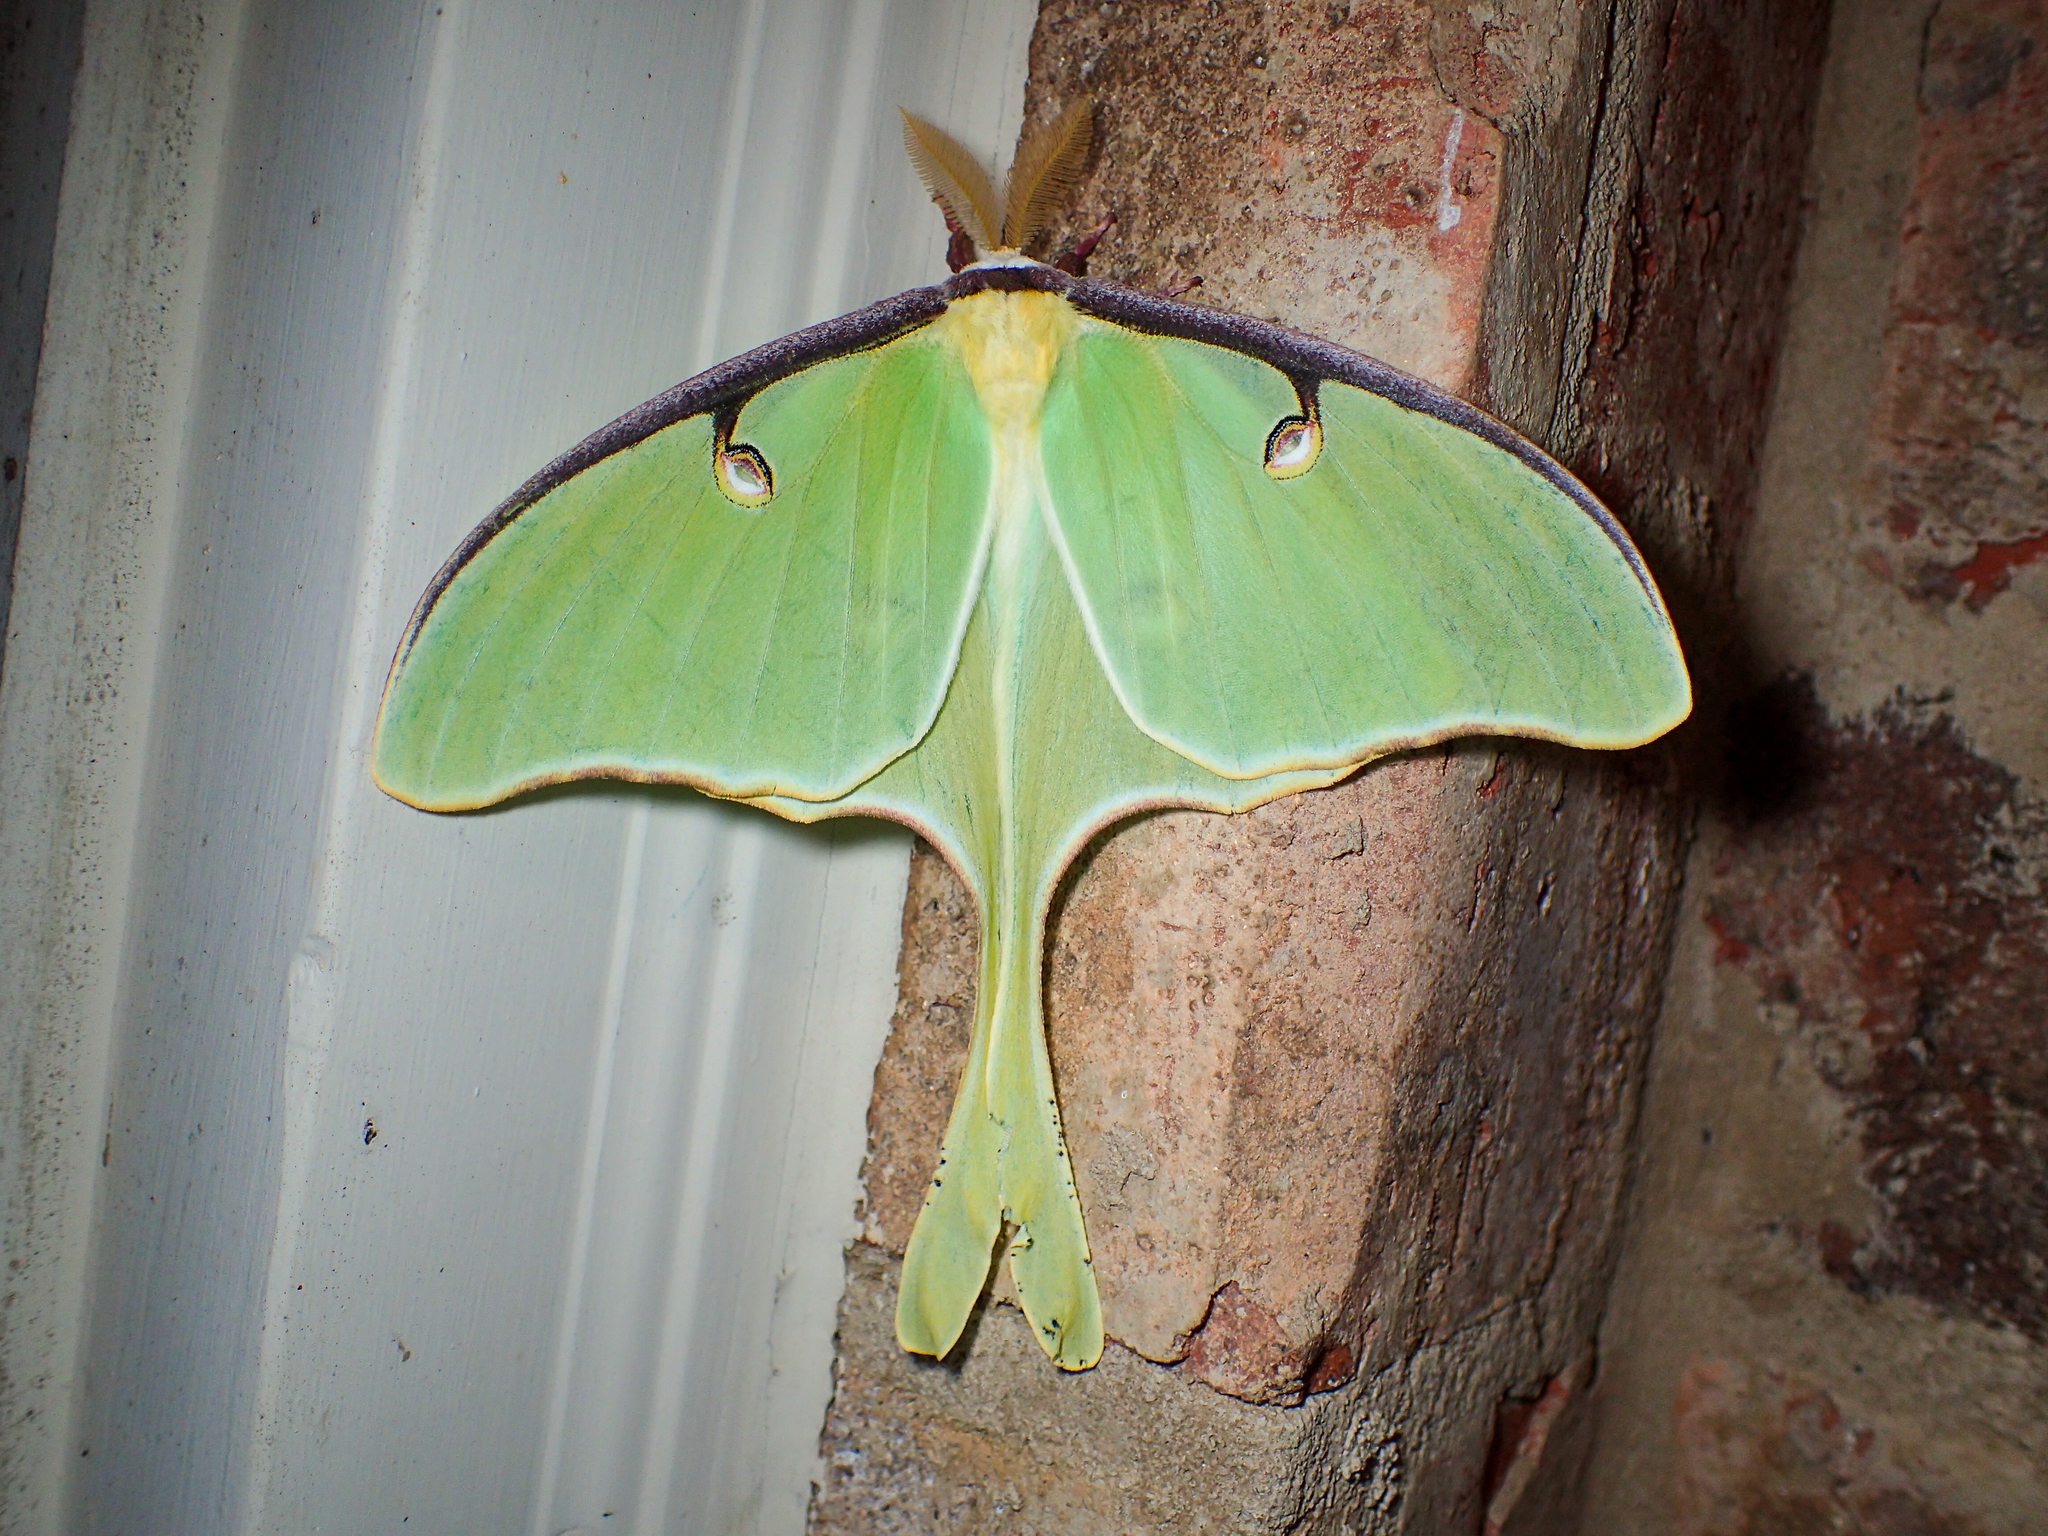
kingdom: Animalia
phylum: Arthropoda
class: Insecta
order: Lepidoptera
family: Saturniidae
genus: Actias
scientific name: Actias luna
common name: Luna moth
